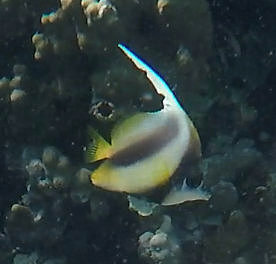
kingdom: Animalia
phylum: Chordata
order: Perciformes
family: Chaetodontidae
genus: Heniochus
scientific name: Heniochus intermedius
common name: Red sea bannerfish
